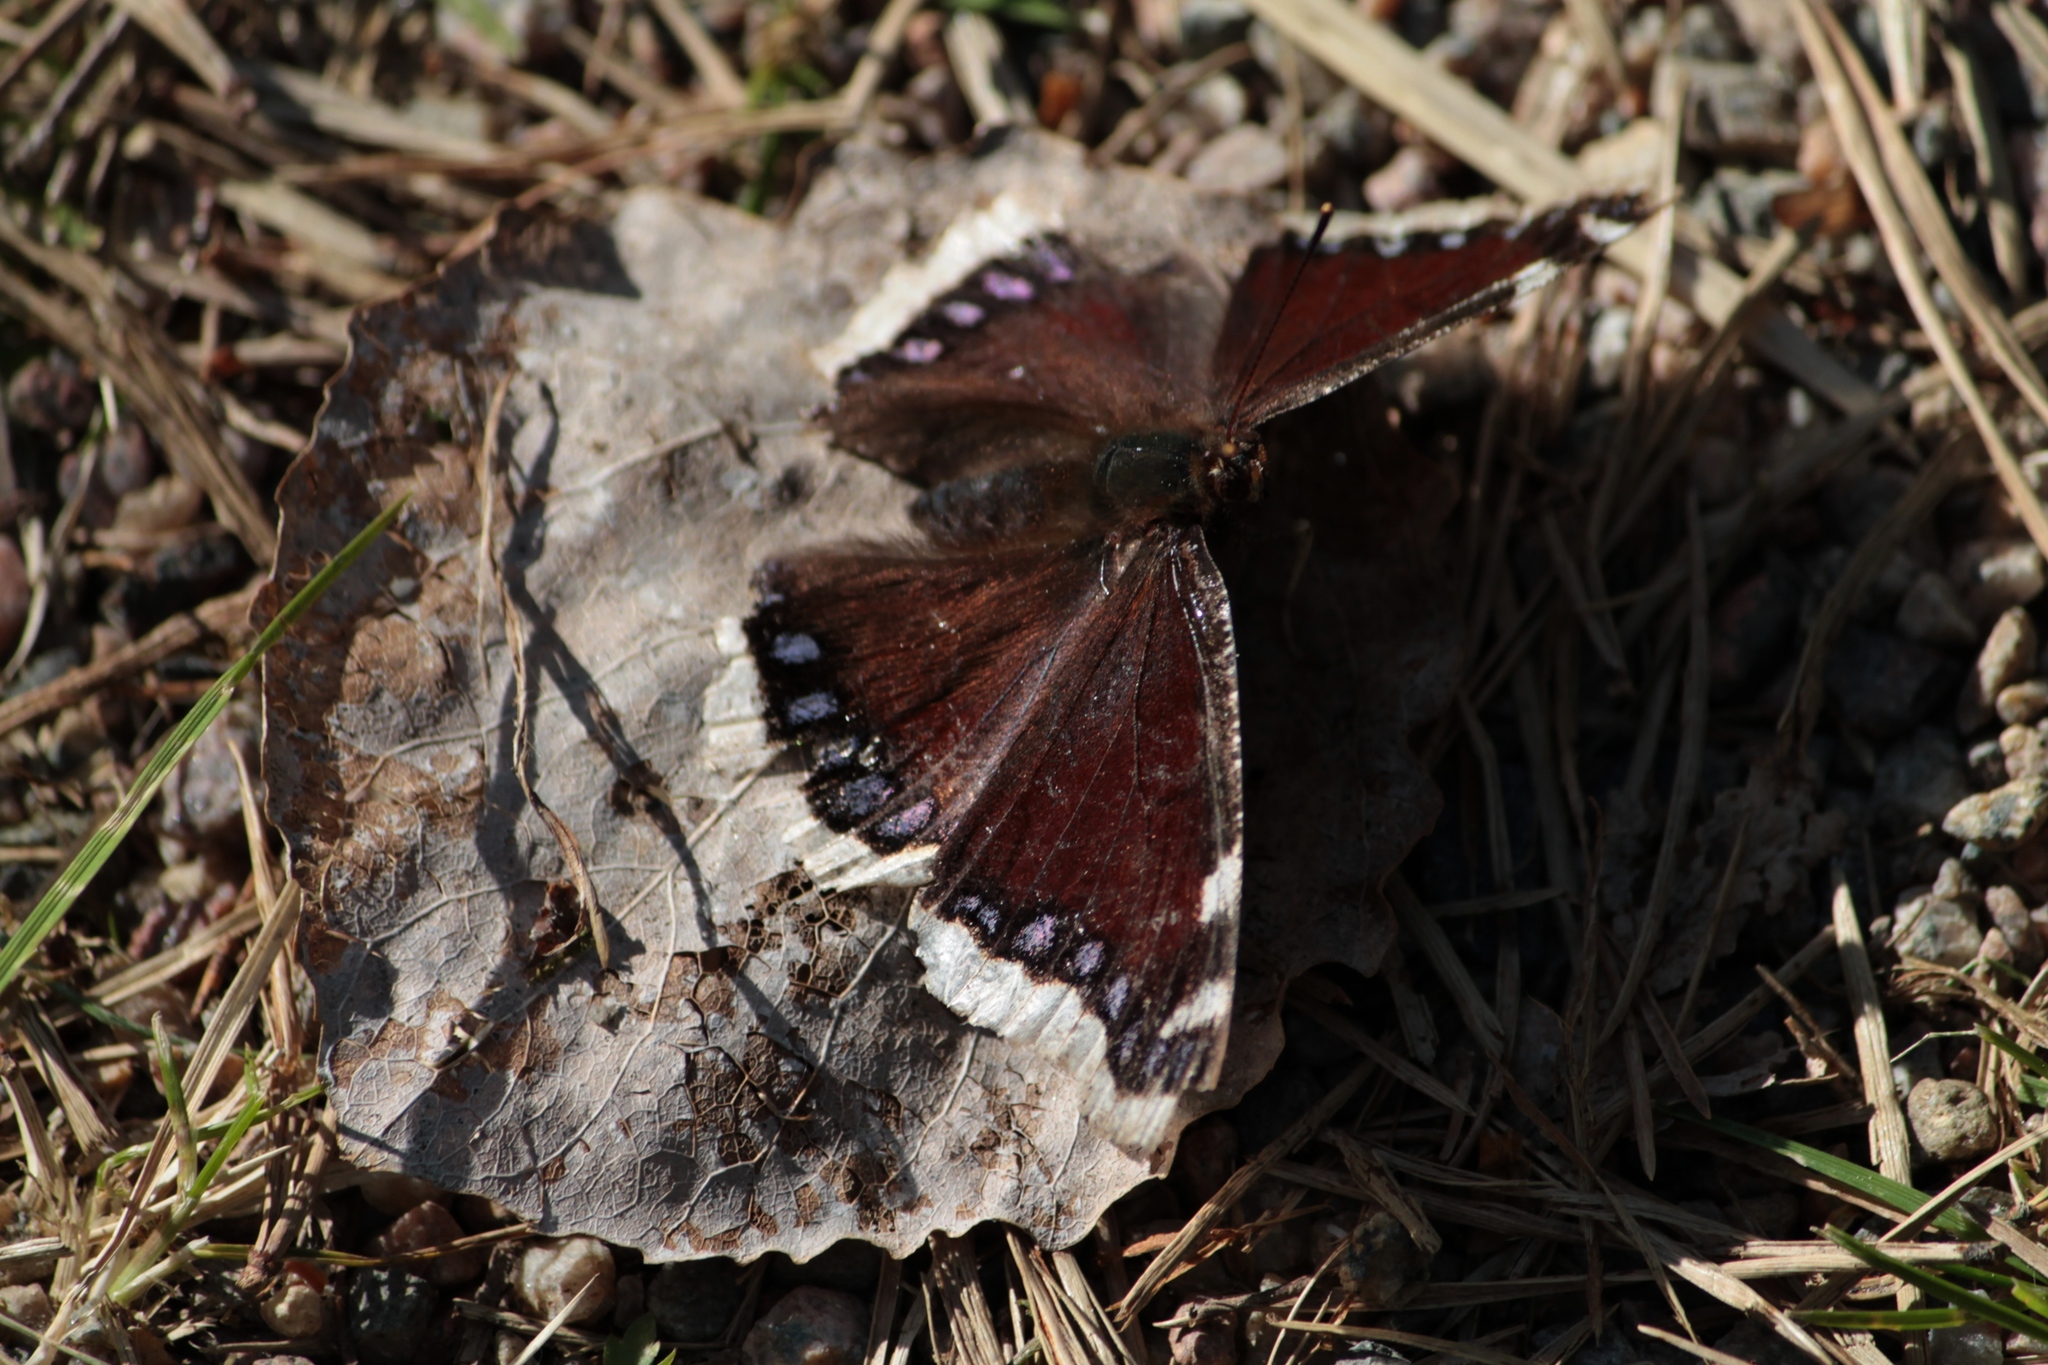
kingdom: Animalia
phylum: Arthropoda
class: Insecta
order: Lepidoptera
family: Nymphalidae
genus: Nymphalis
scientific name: Nymphalis antiopa
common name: Camberwell beauty
